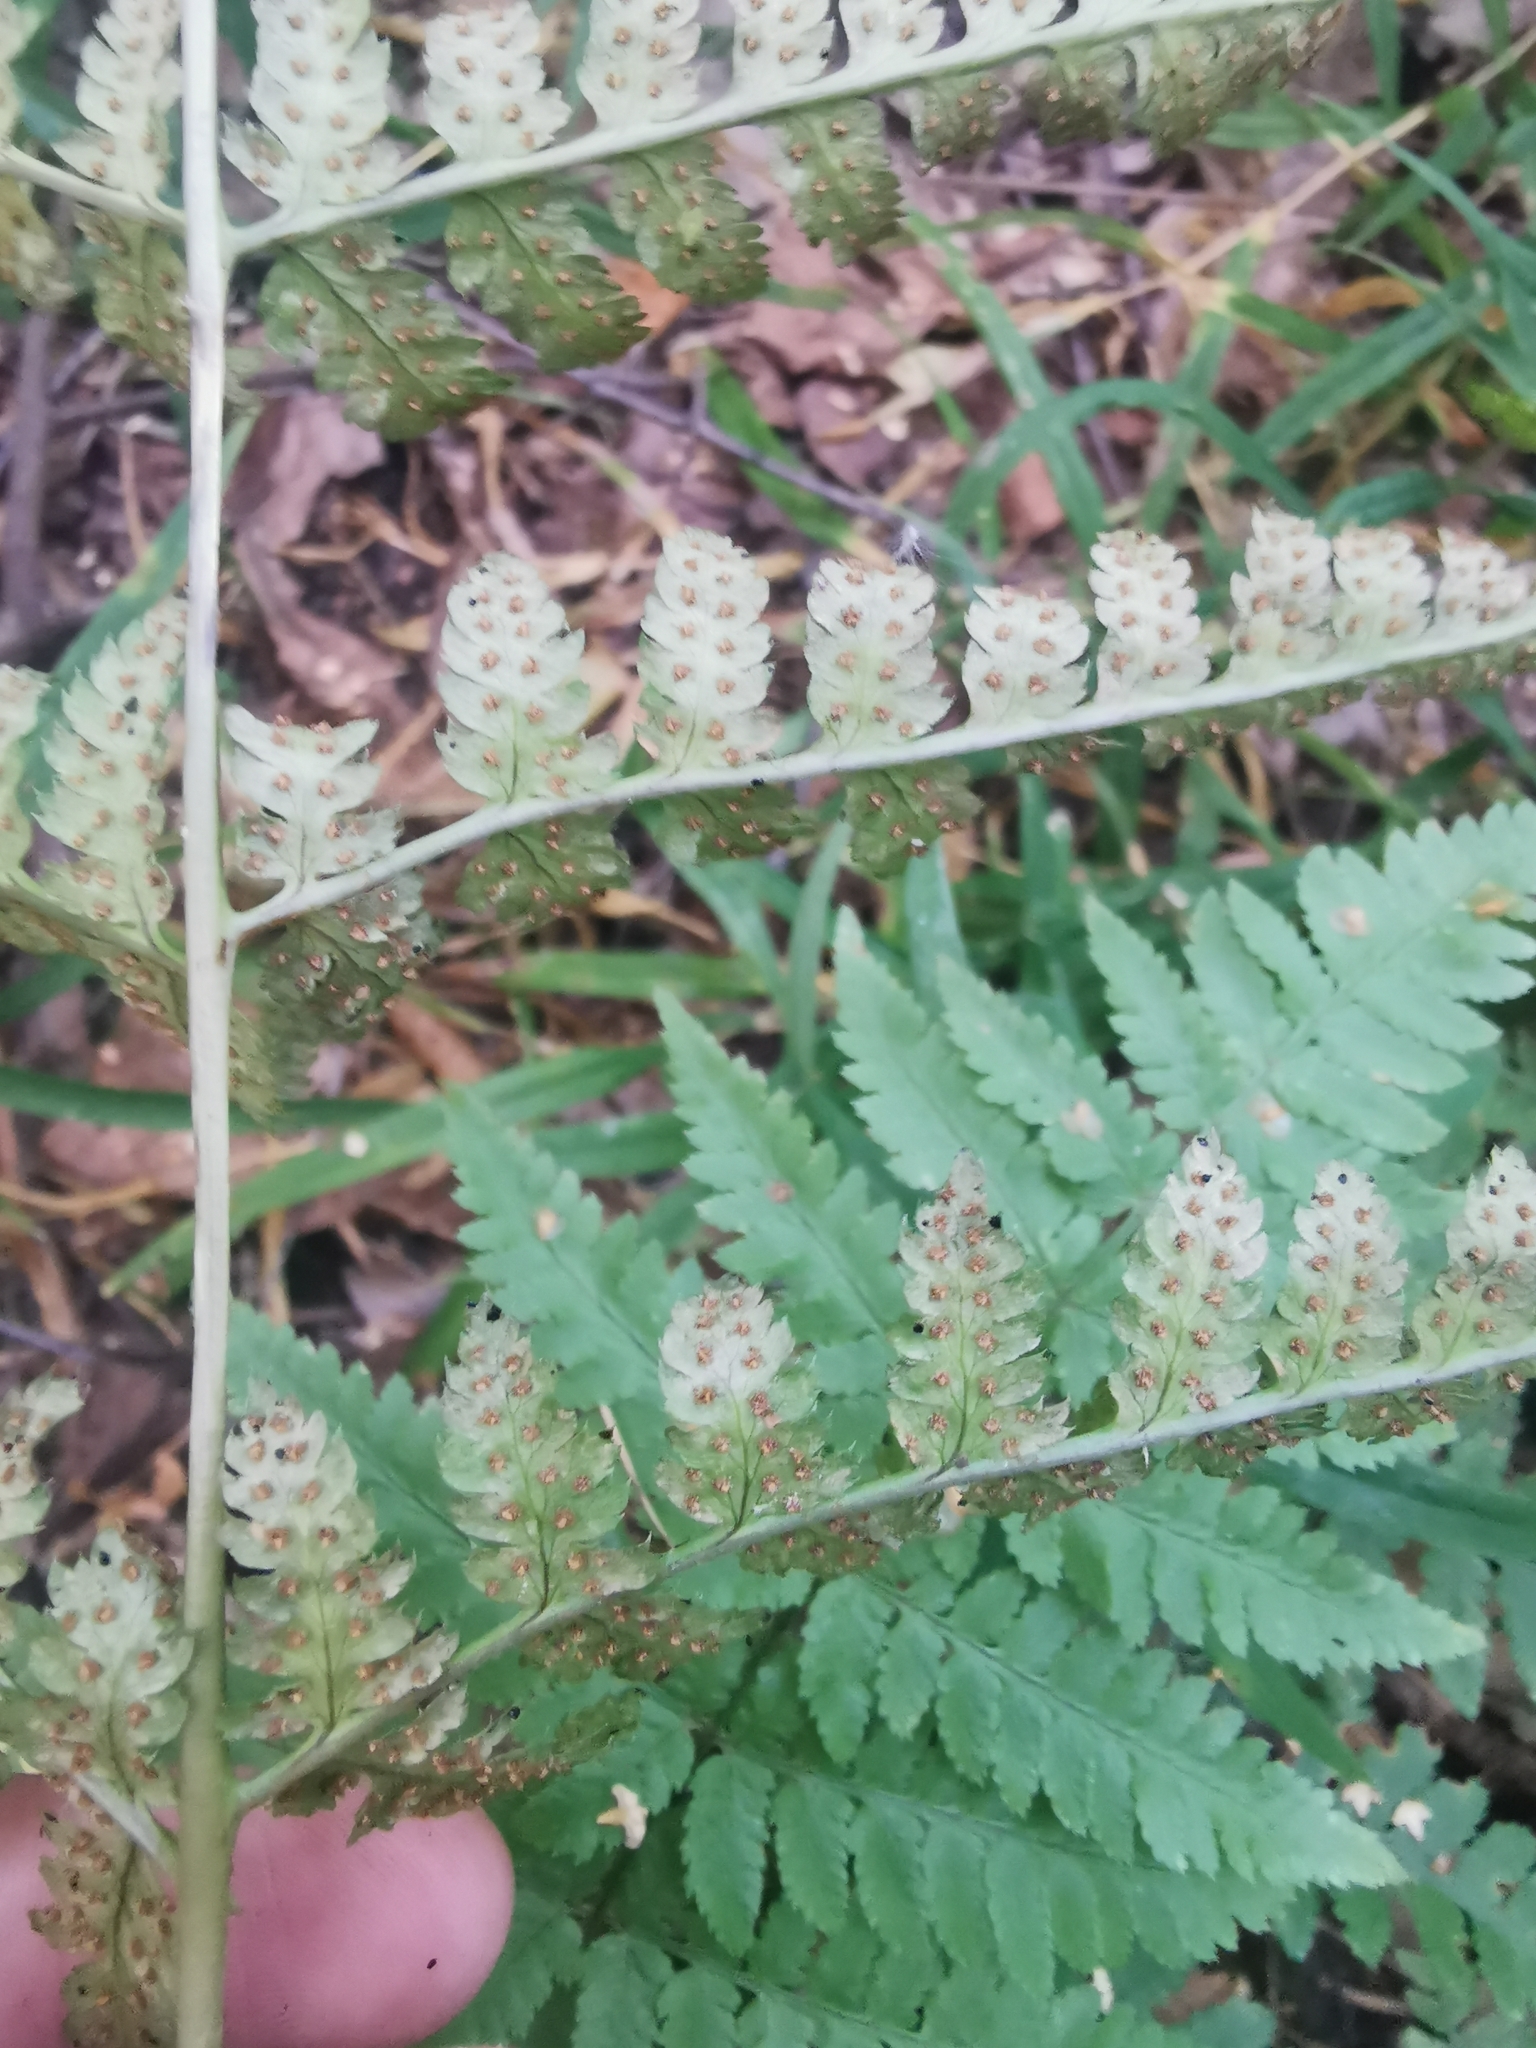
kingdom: Plantae
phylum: Tracheophyta
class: Polypodiopsida
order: Polypodiales
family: Dryopteridaceae
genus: Dryopteris
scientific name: Dryopteris carthusiana
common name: Narrow buckler-fern
